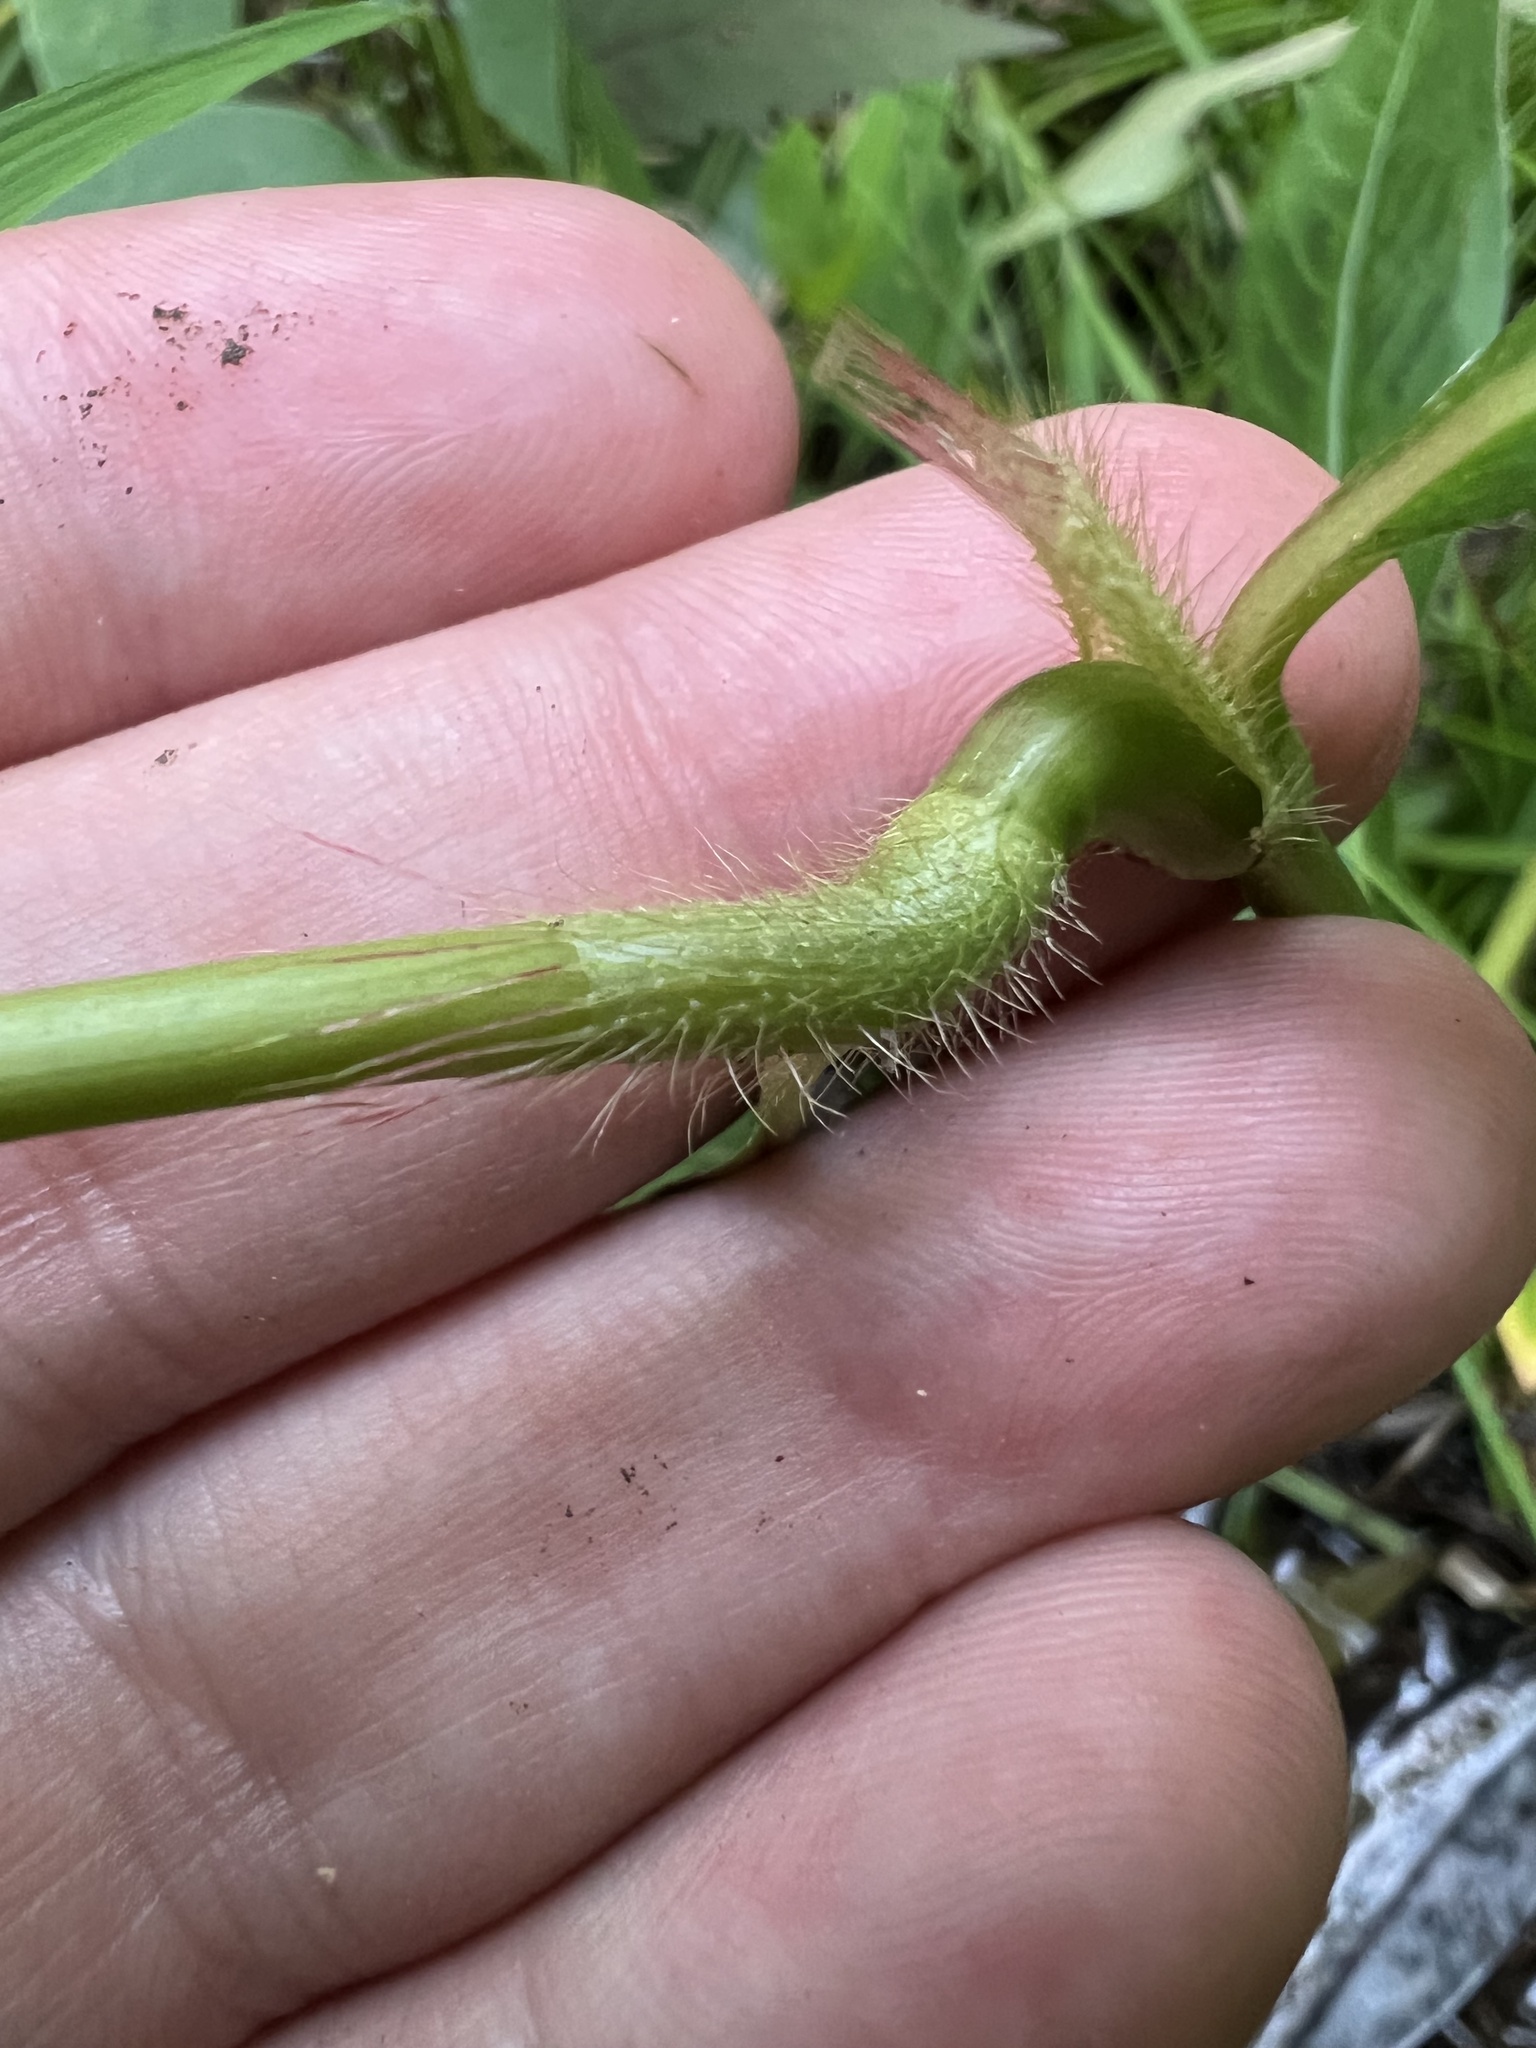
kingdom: Plantae
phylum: Tracheophyta
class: Magnoliopsida
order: Caryophyllales
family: Polygonaceae
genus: Persicaria
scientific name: Persicaria setacea
